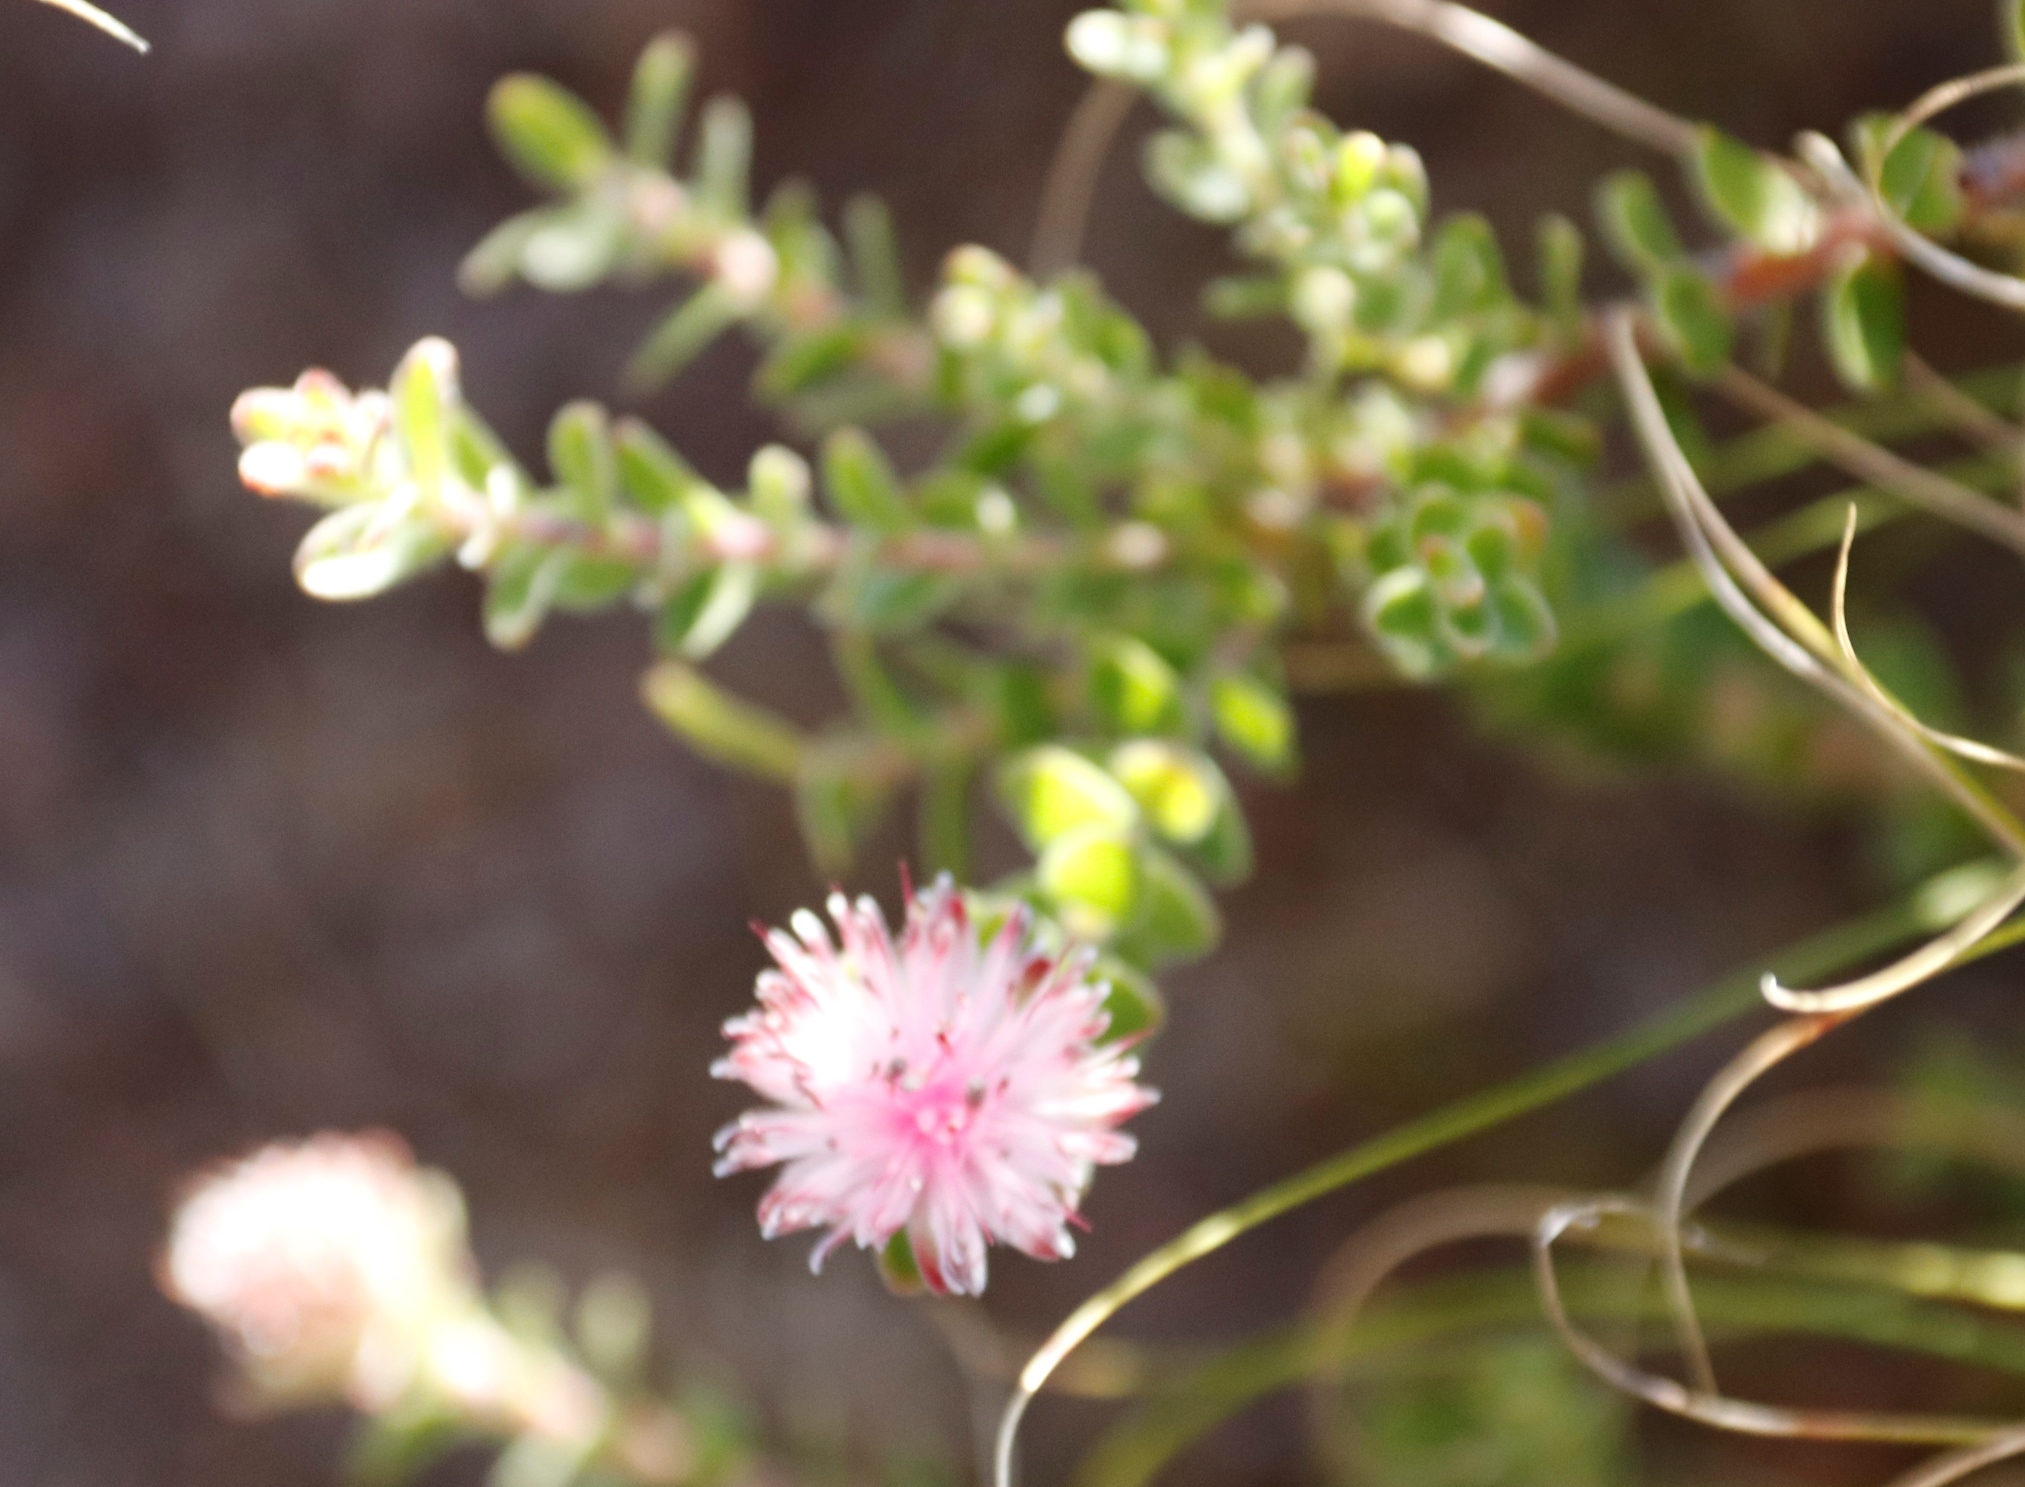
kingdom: Plantae
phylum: Tracheophyta
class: Magnoliopsida
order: Proteales
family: Proteaceae
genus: Diastella
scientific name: Diastella divaricata
